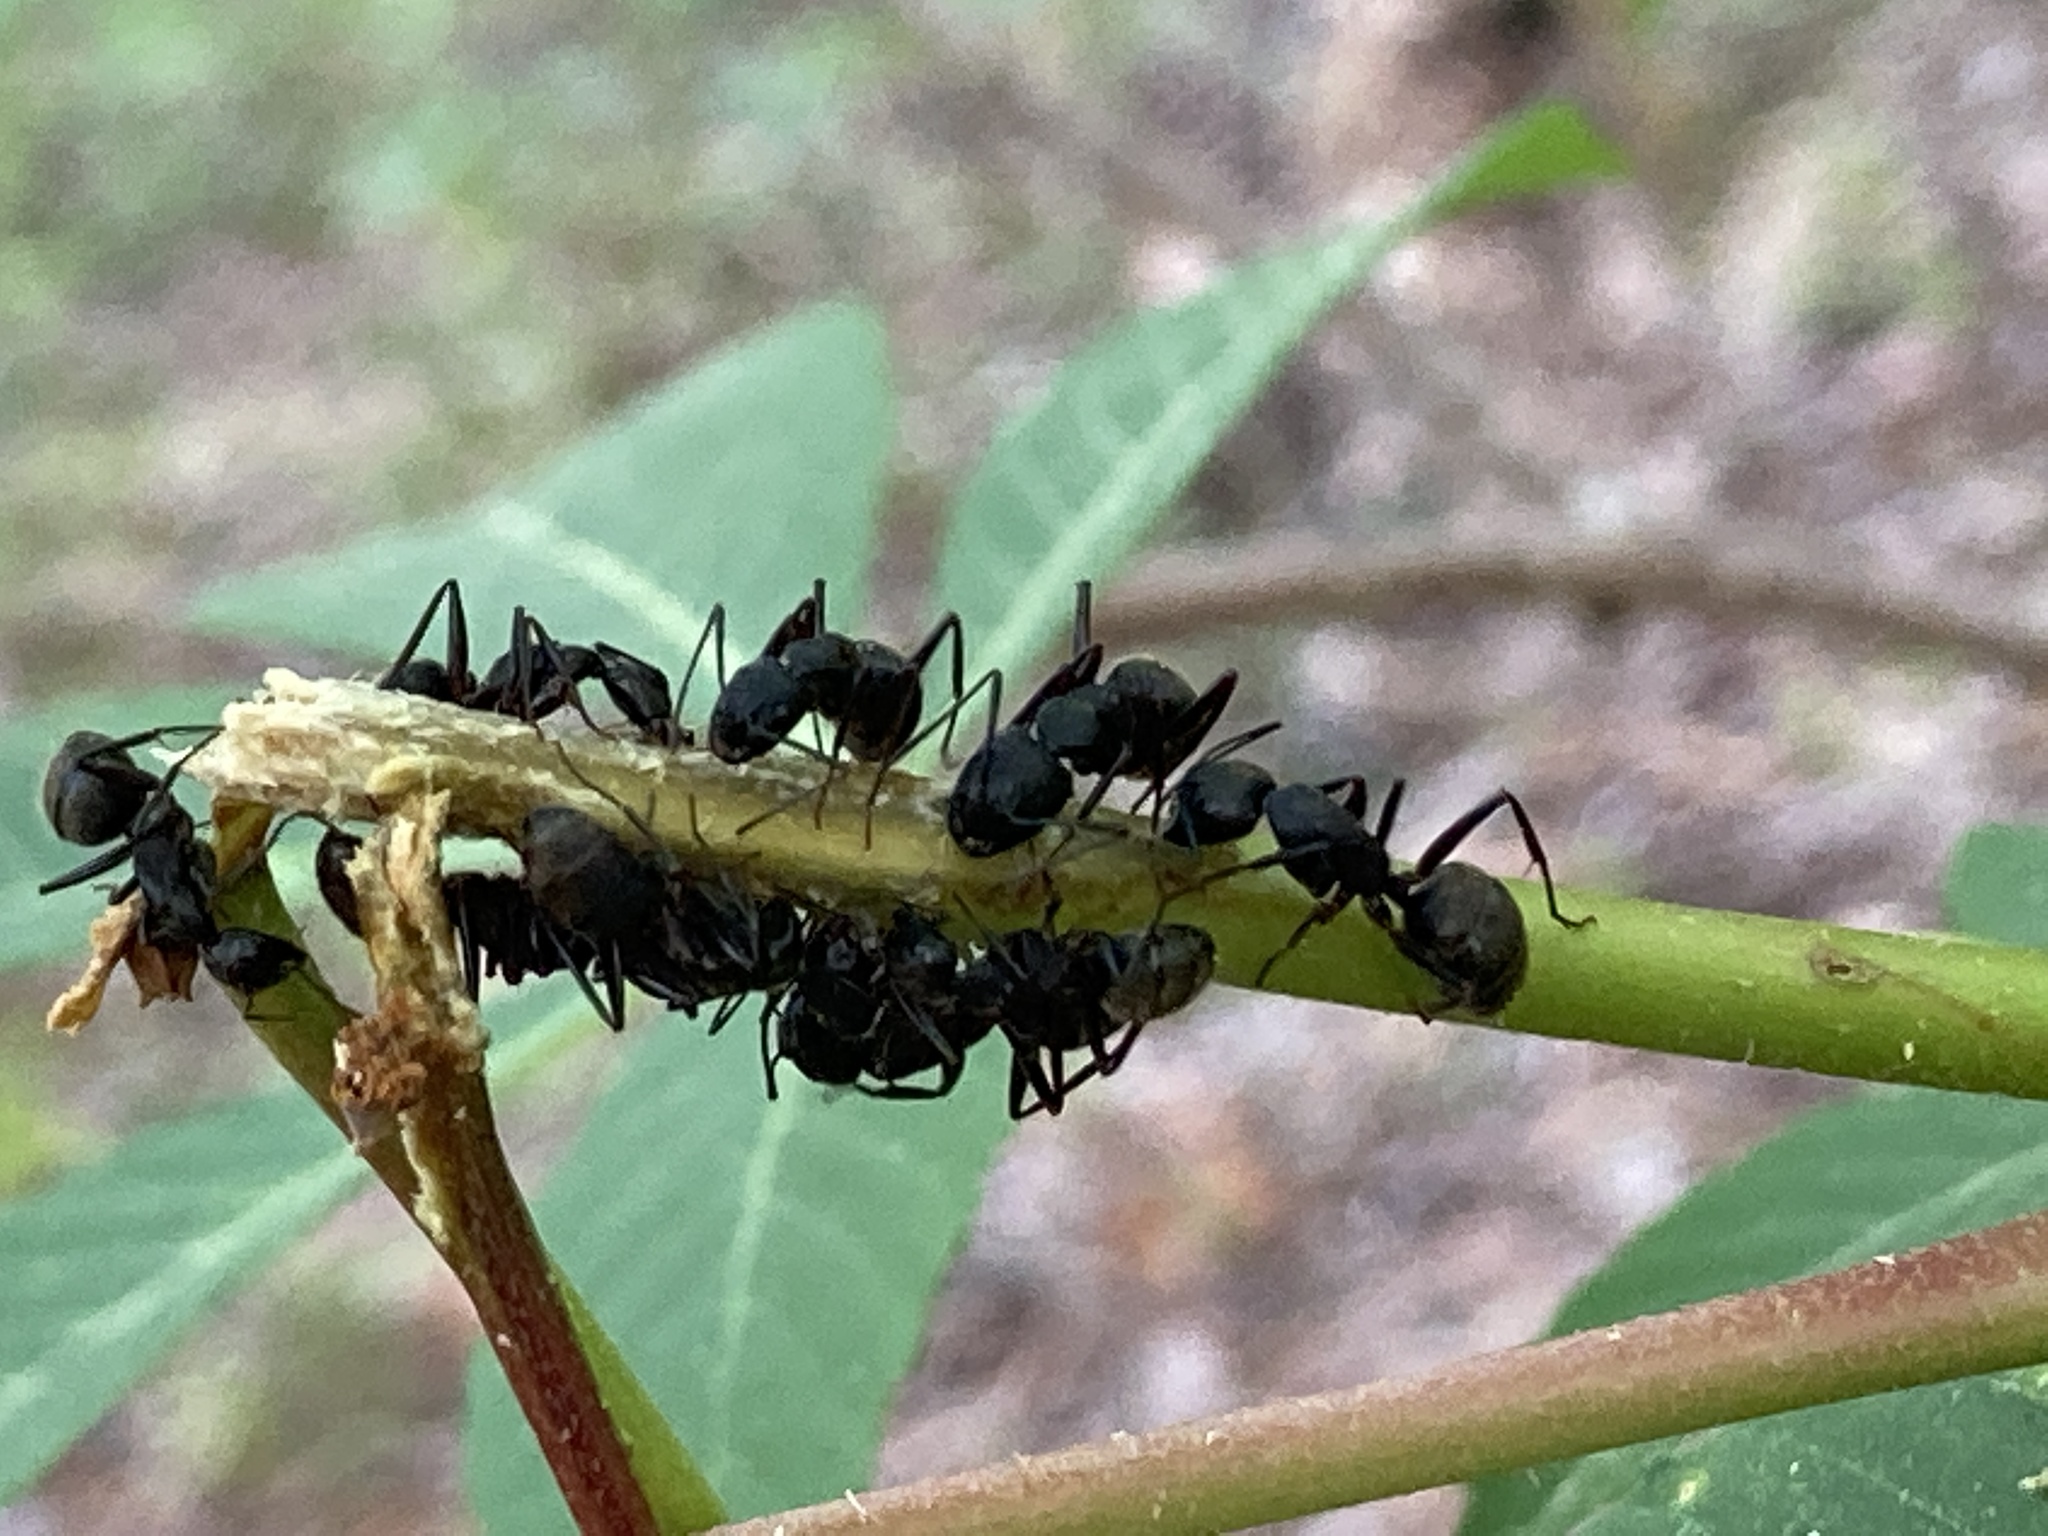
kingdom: Animalia
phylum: Arthropoda
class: Insecta
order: Hymenoptera
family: Formicidae
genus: Camponotus
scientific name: Camponotus pennsylvanicus
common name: Black carpenter ant
